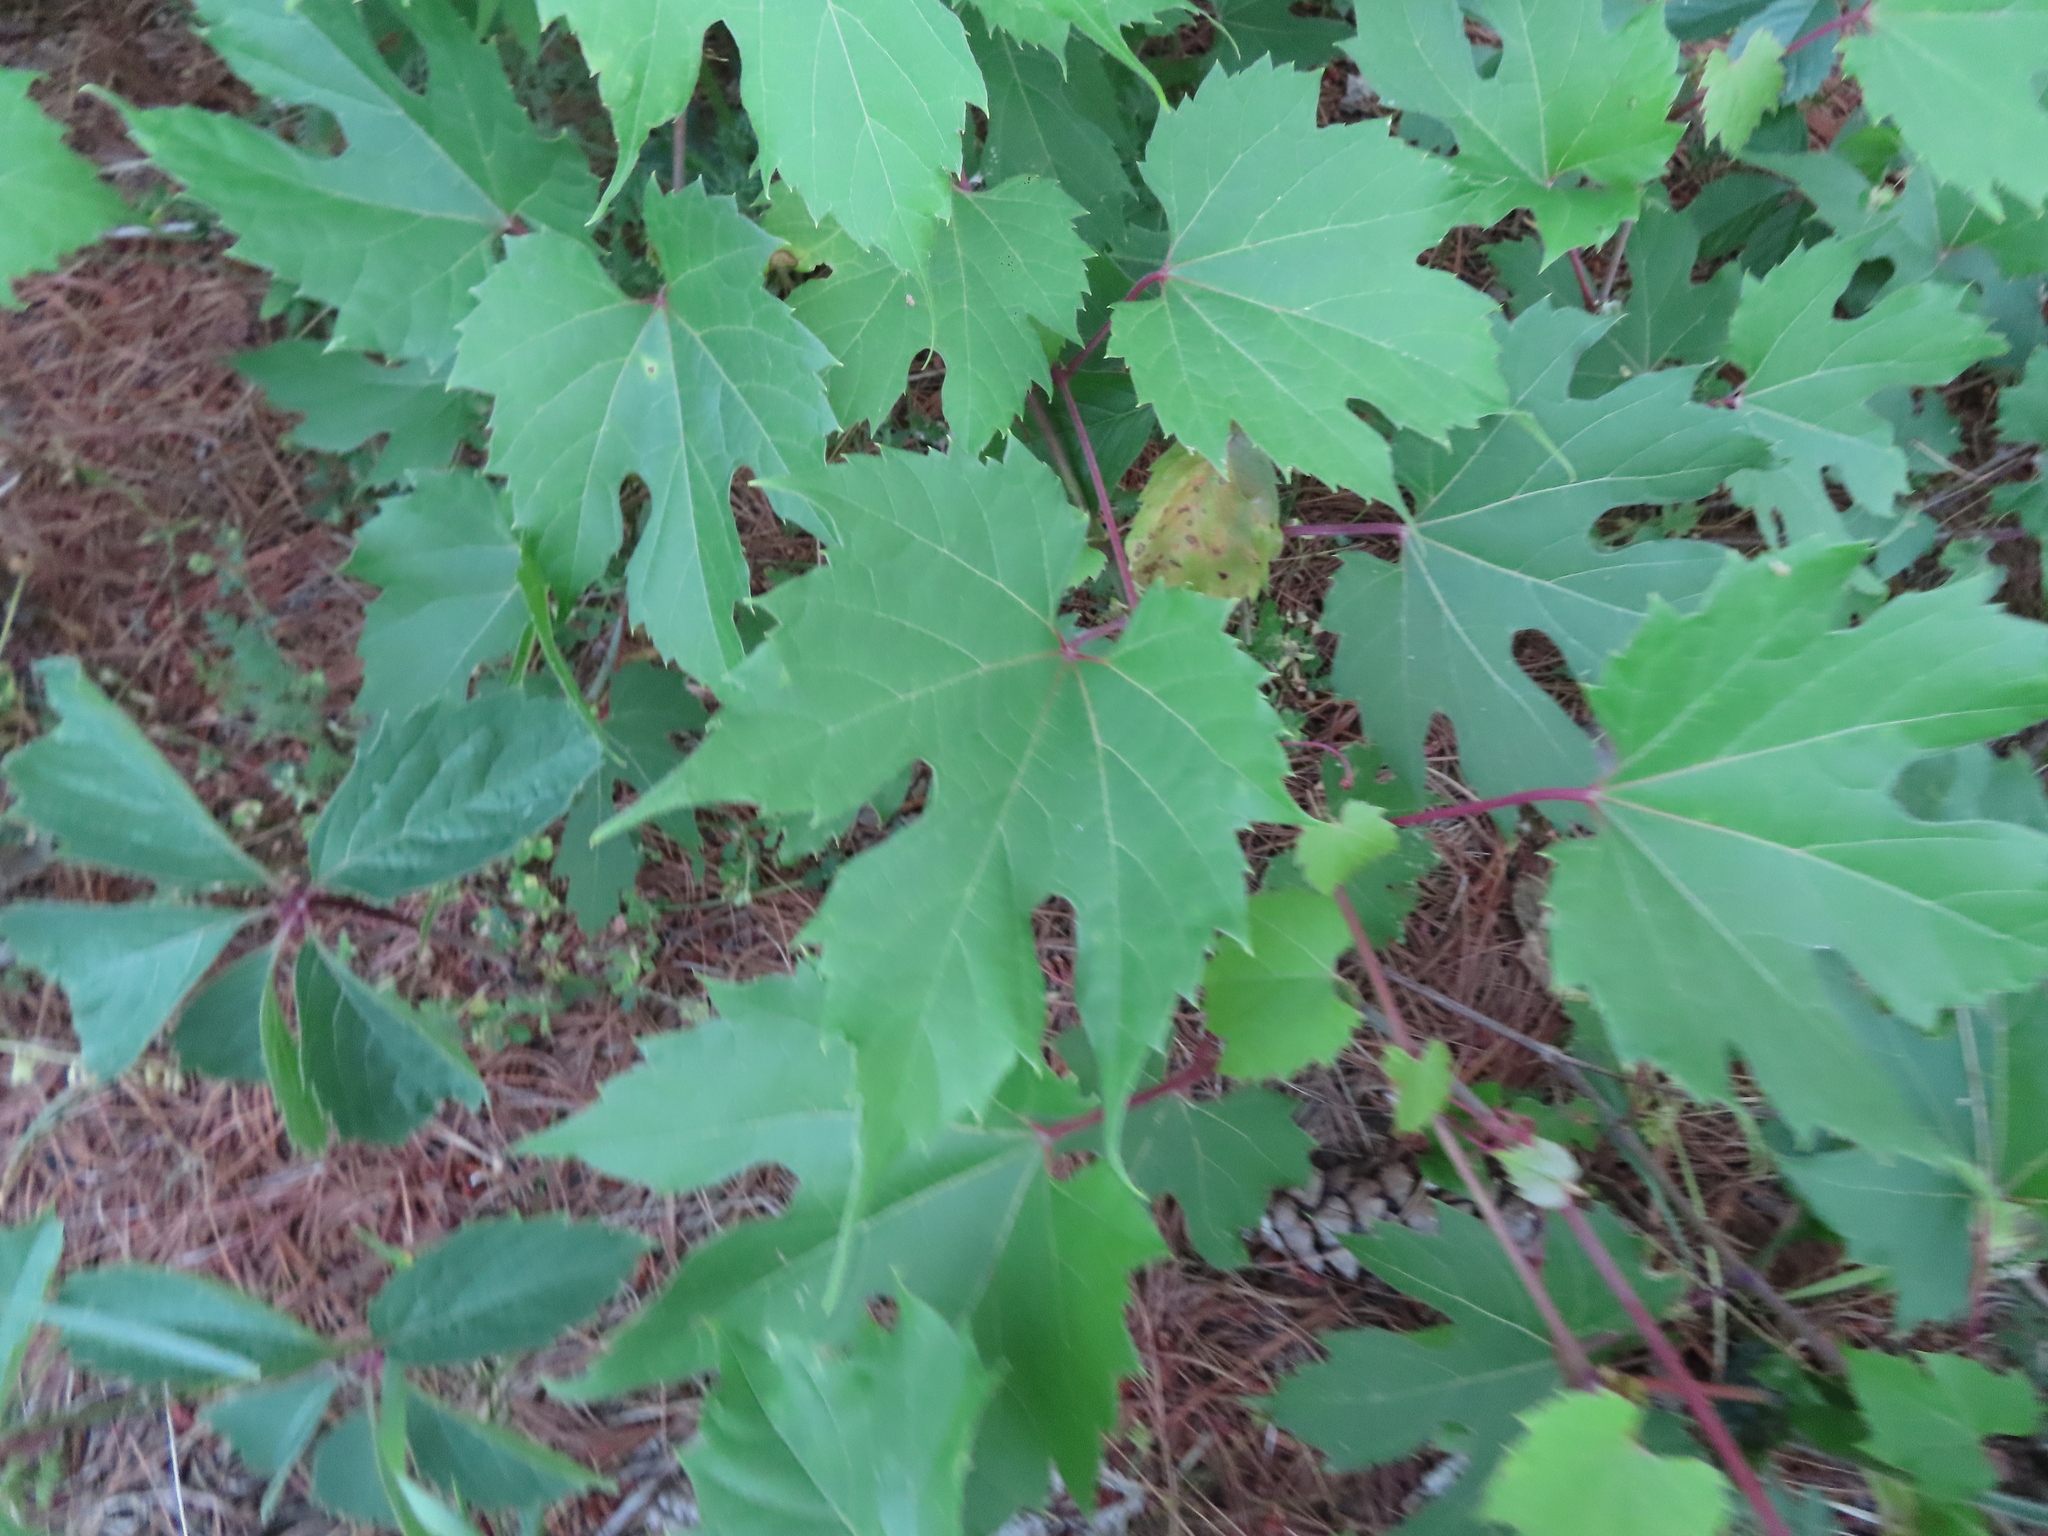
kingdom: Plantae
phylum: Tracheophyta
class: Magnoliopsida
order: Vitales
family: Vitaceae
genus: Vitis
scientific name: Vitis riparia
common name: Frost grape
